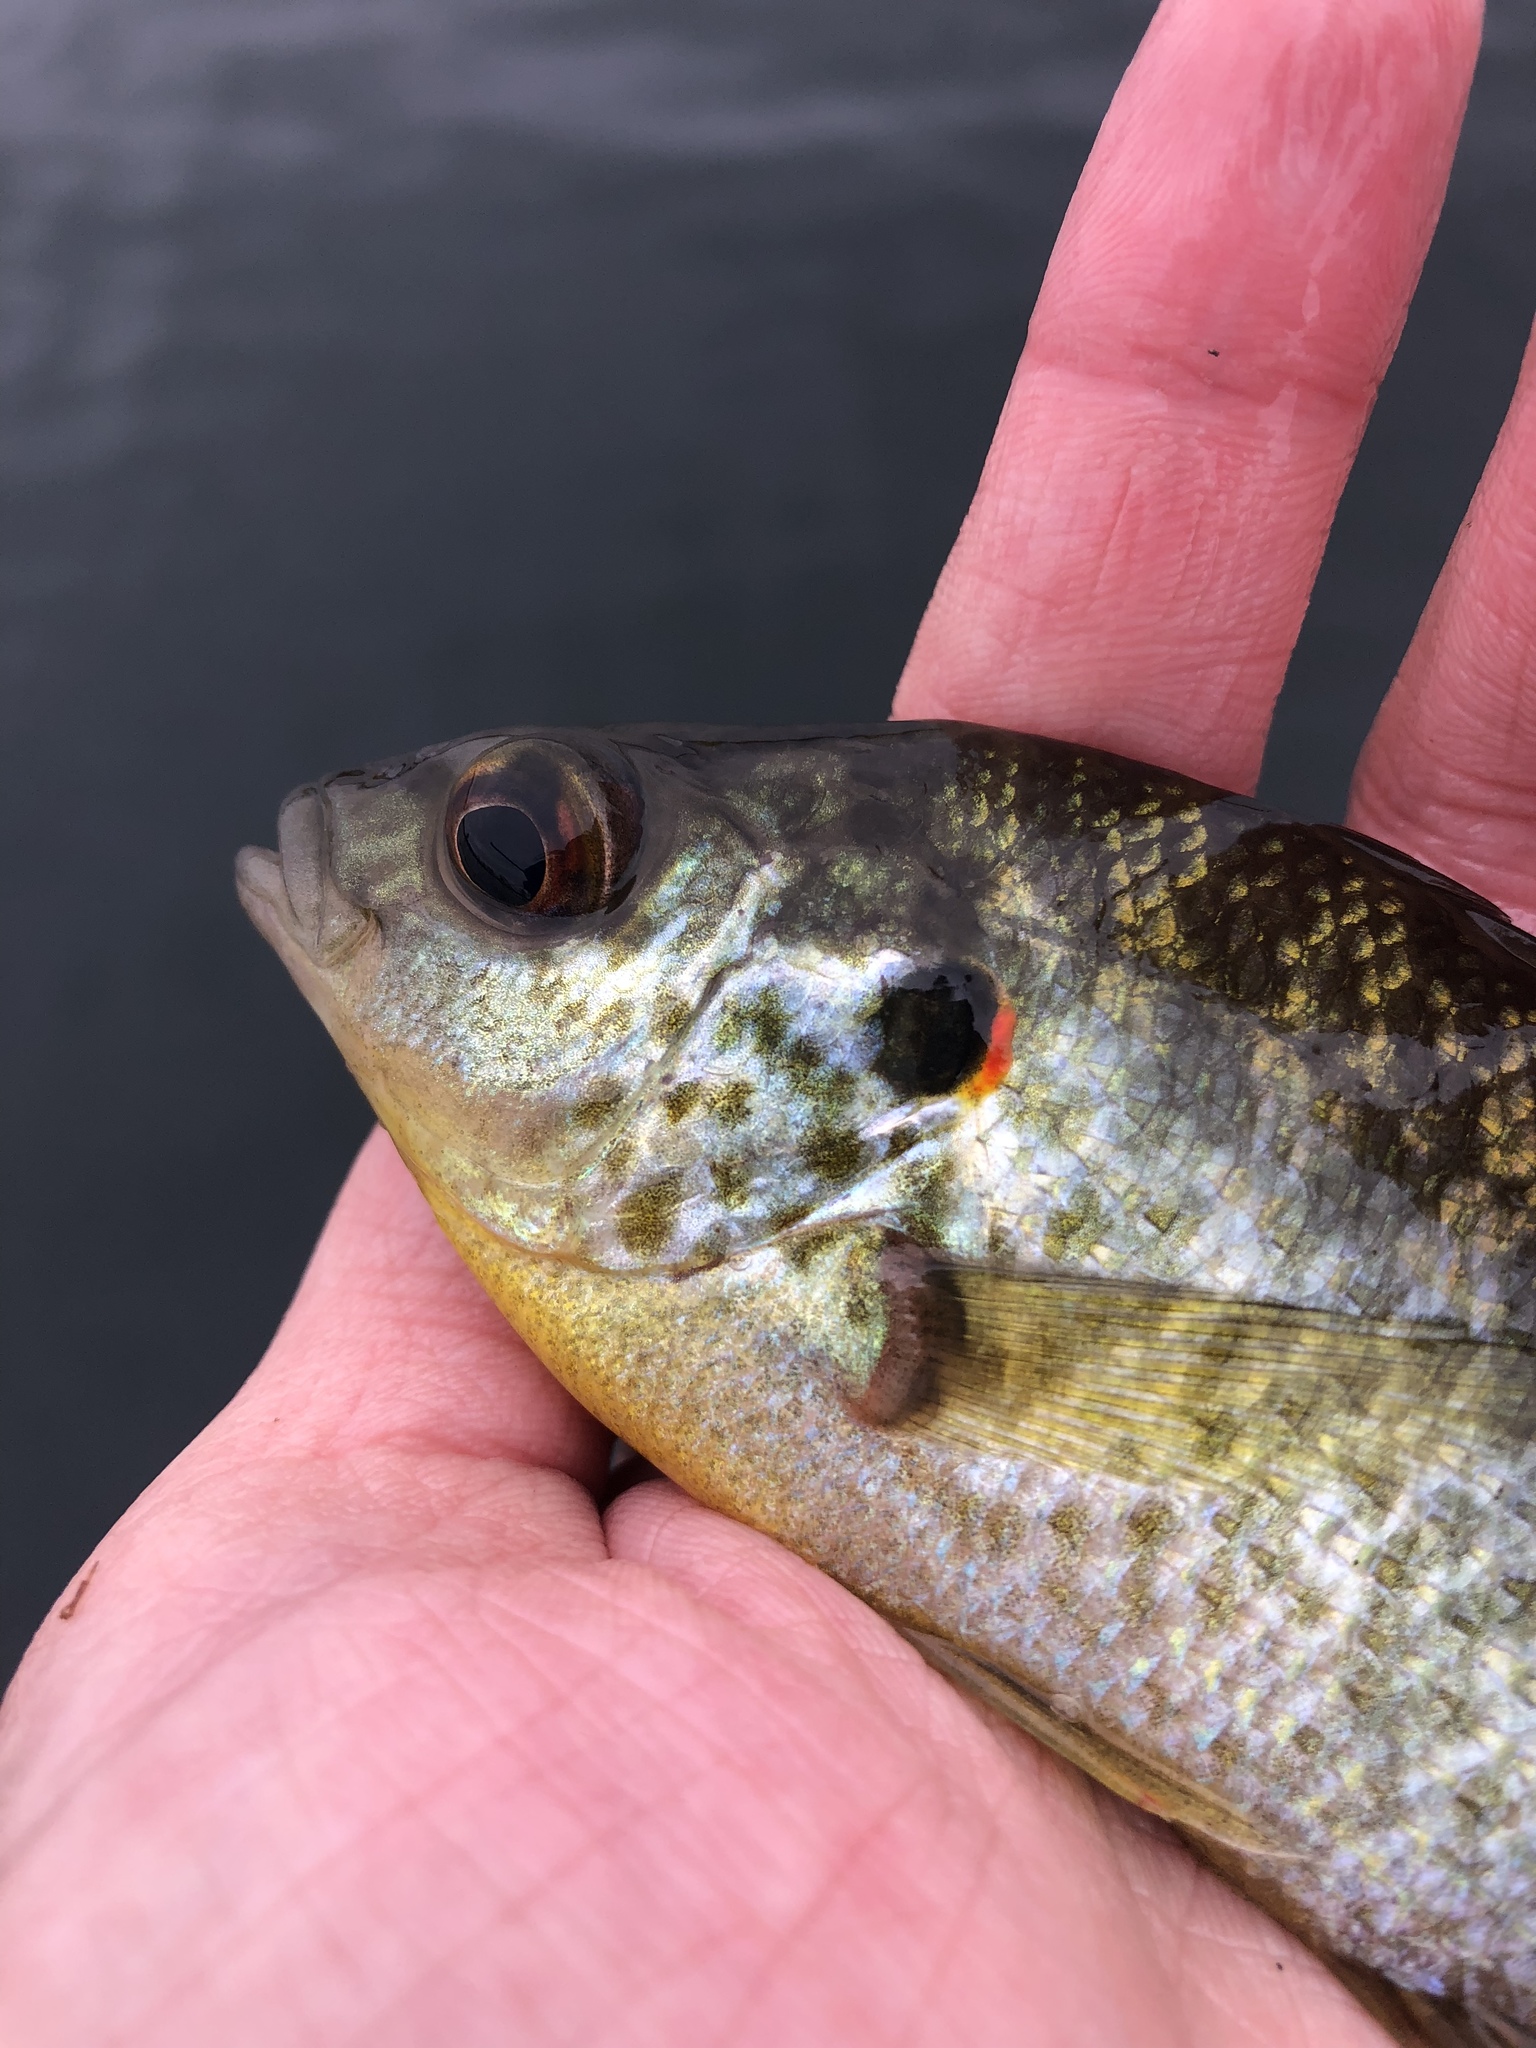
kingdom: Animalia
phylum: Chordata
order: Perciformes
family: Centrarchidae
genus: Lepomis
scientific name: Lepomis microlophus
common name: Redear sunfish
